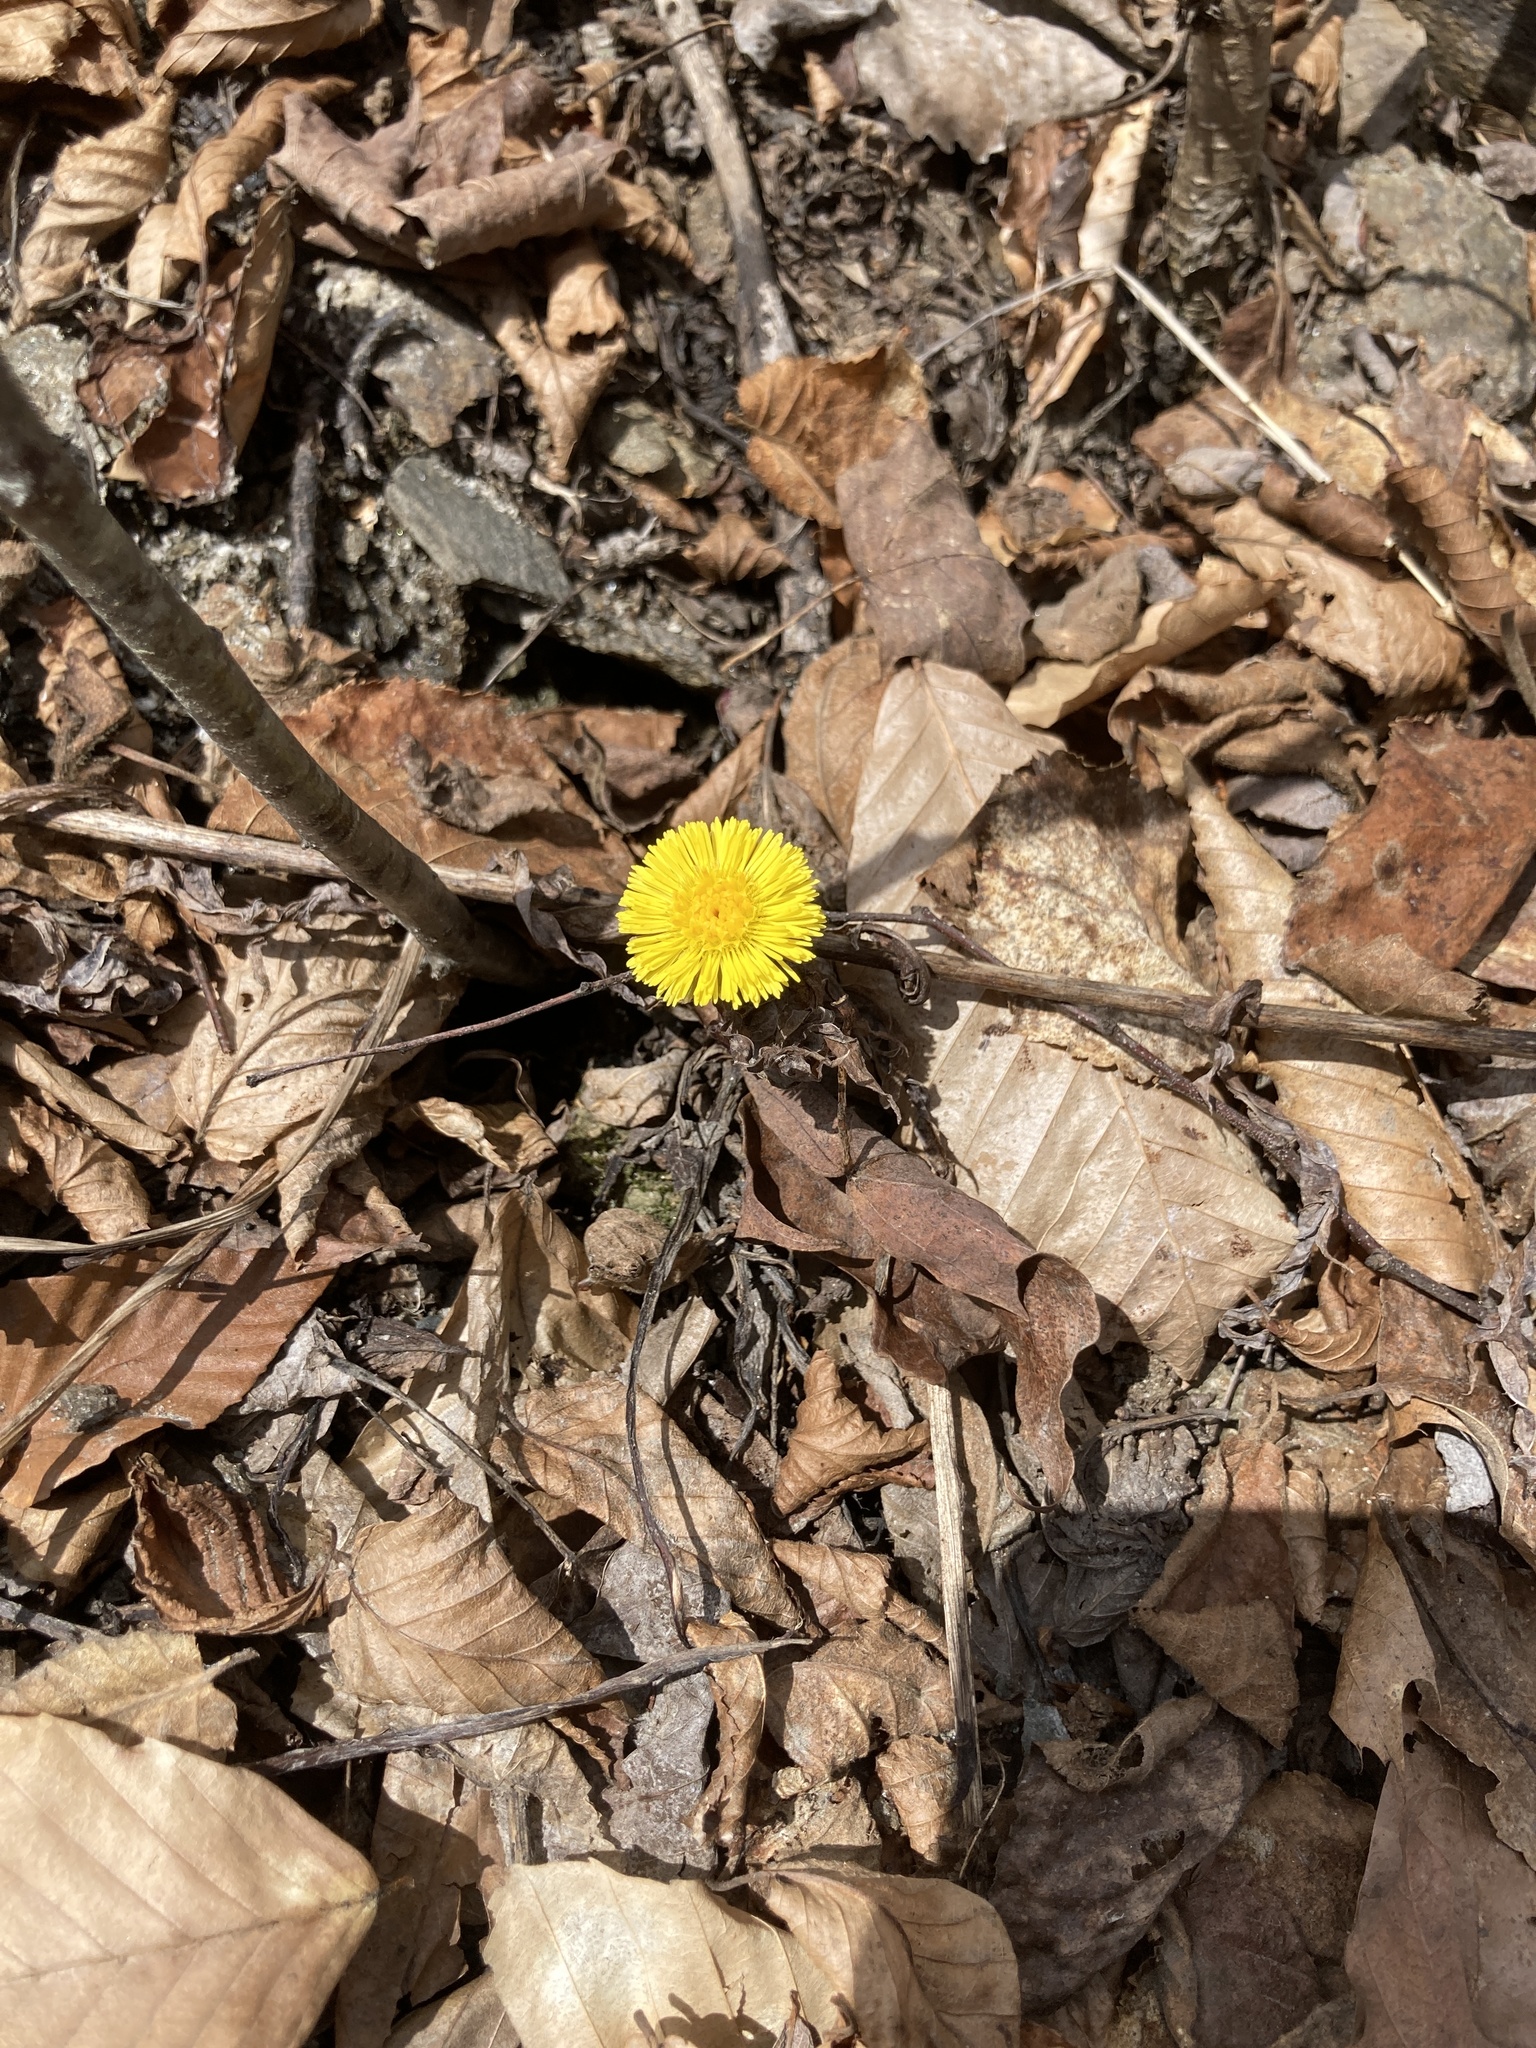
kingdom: Plantae
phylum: Tracheophyta
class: Magnoliopsida
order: Asterales
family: Asteraceae
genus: Tussilago
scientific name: Tussilago farfara
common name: Coltsfoot
